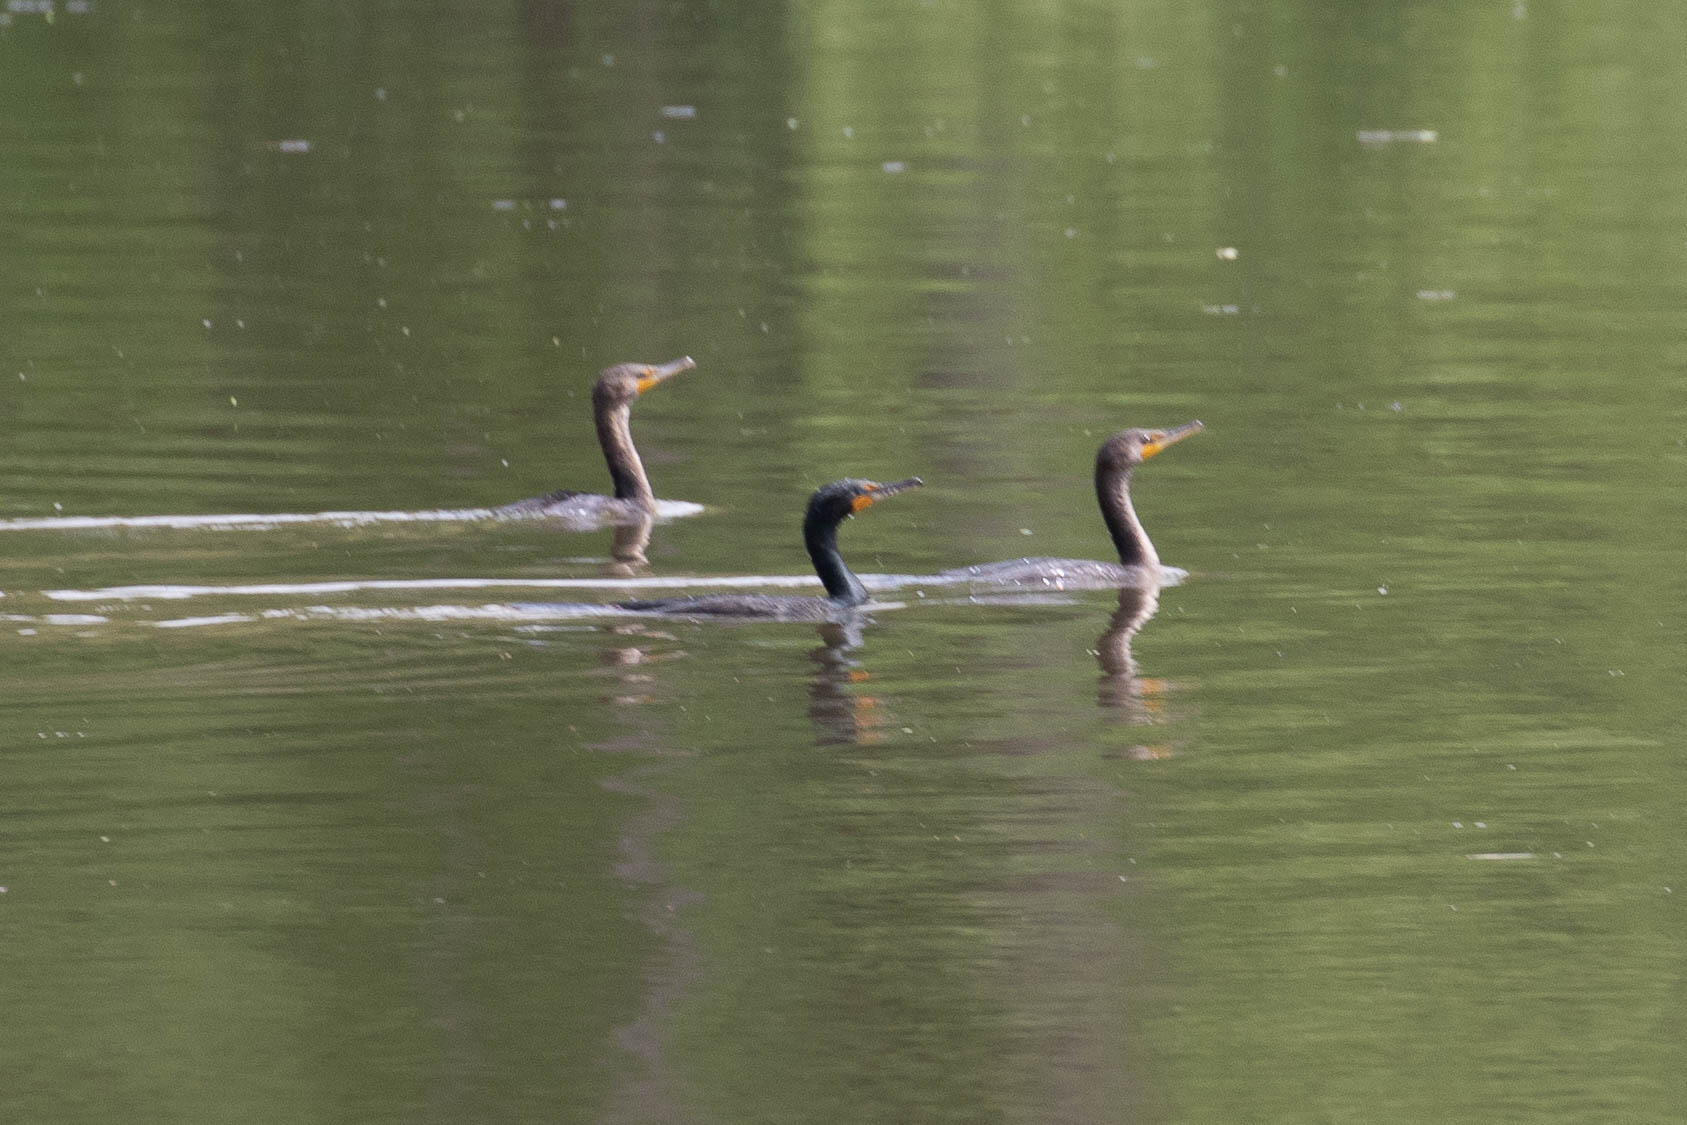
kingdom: Animalia
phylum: Chordata
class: Aves
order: Suliformes
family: Phalacrocoracidae
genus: Phalacrocorax
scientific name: Phalacrocorax auritus
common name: Double-crested cormorant
